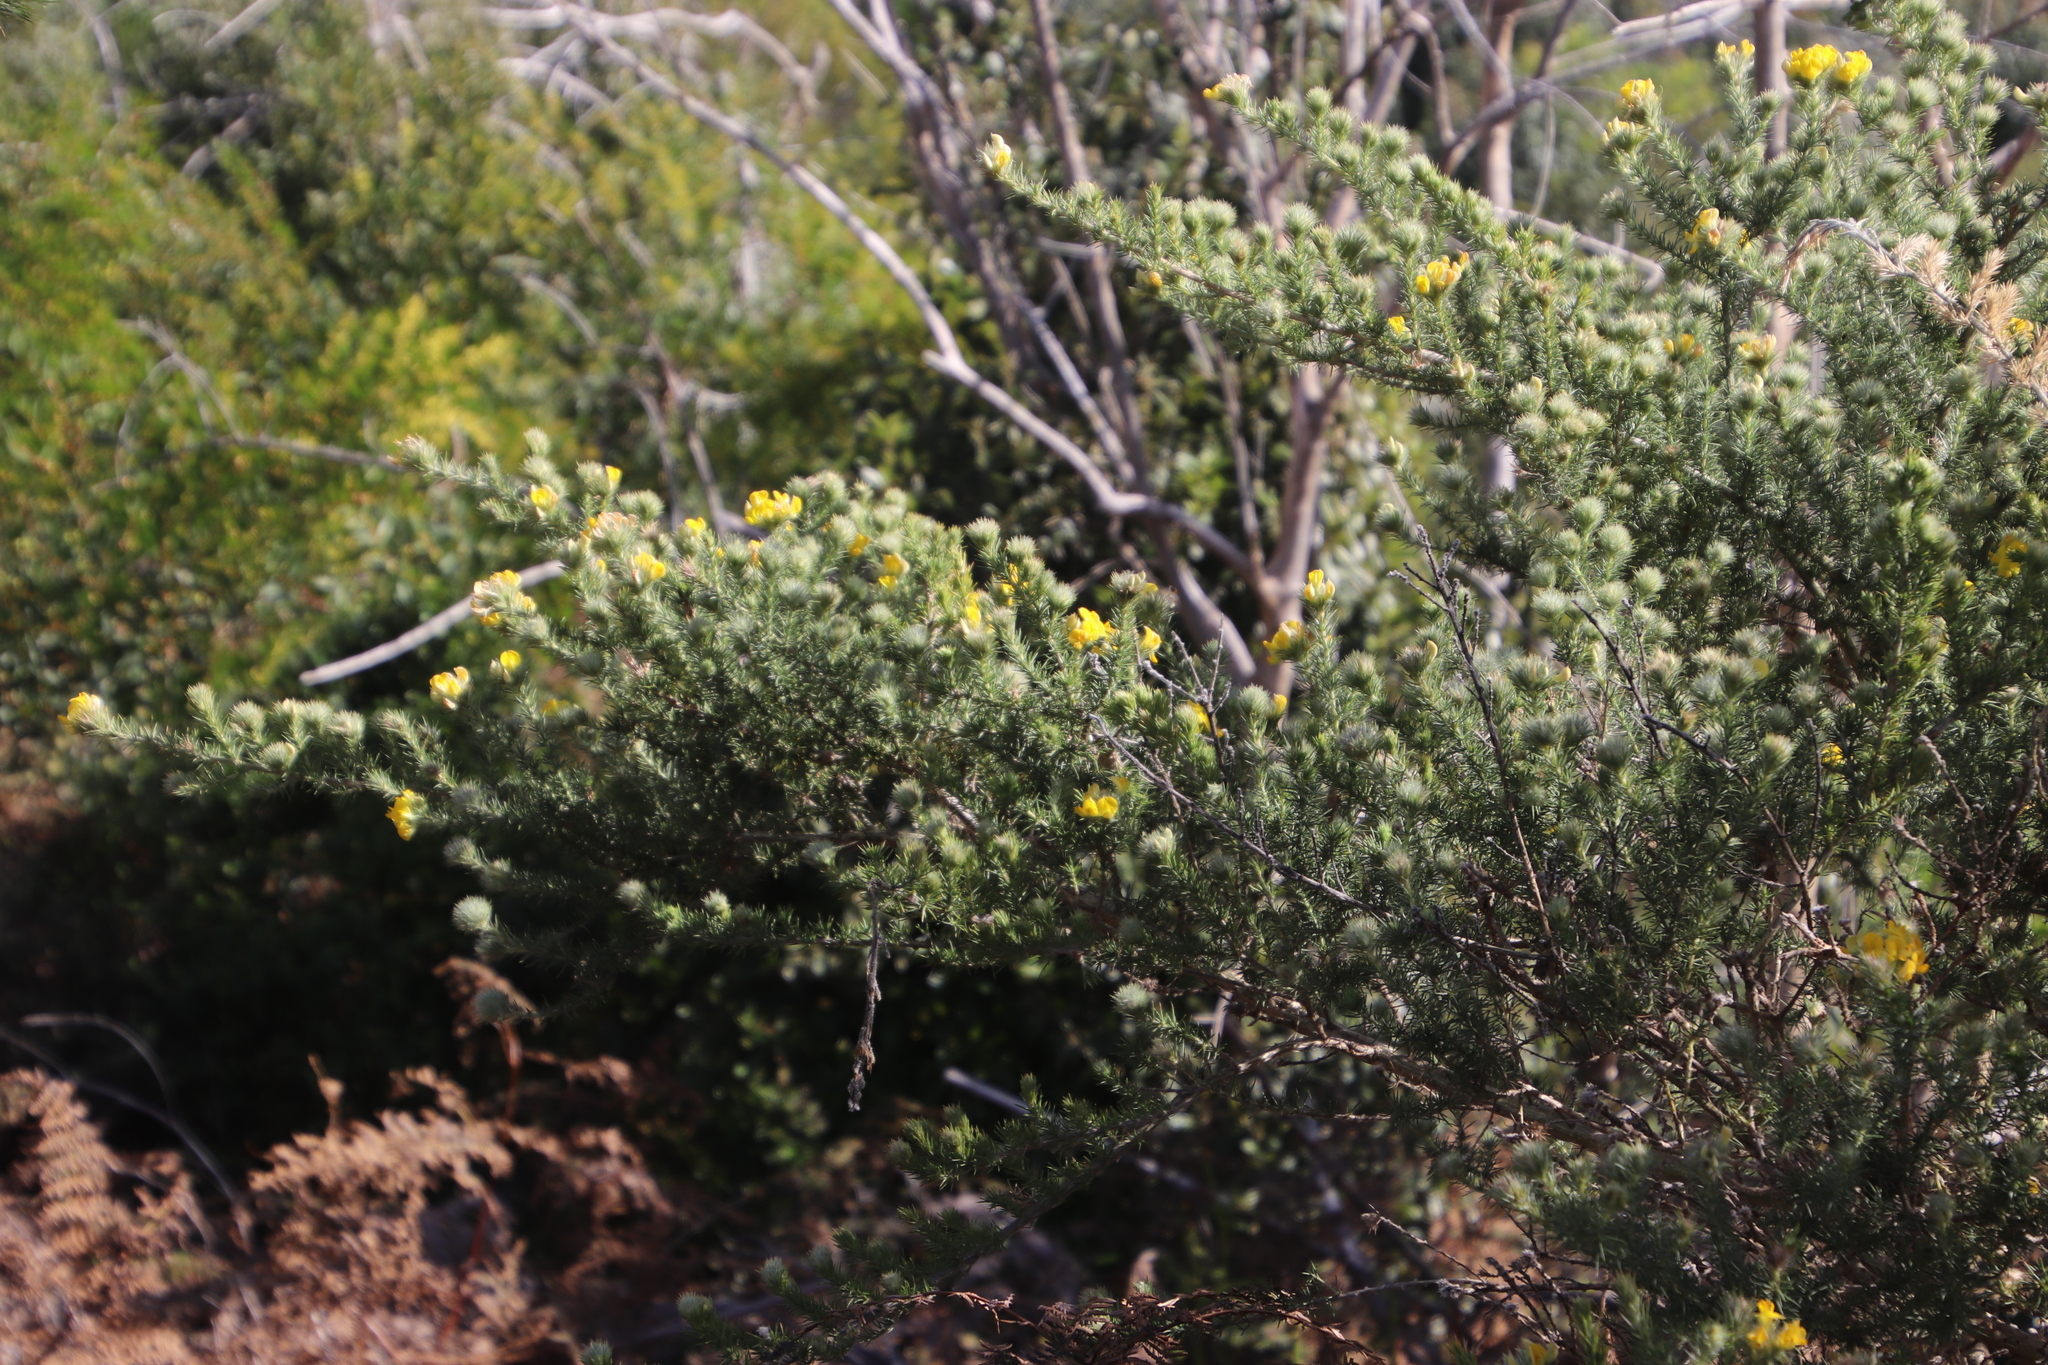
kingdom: Plantae
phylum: Tracheophyta
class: Magnoliopsida
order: Fabales
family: Fabaceae
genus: Aspalathus
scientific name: Aspalathus chenopoda
